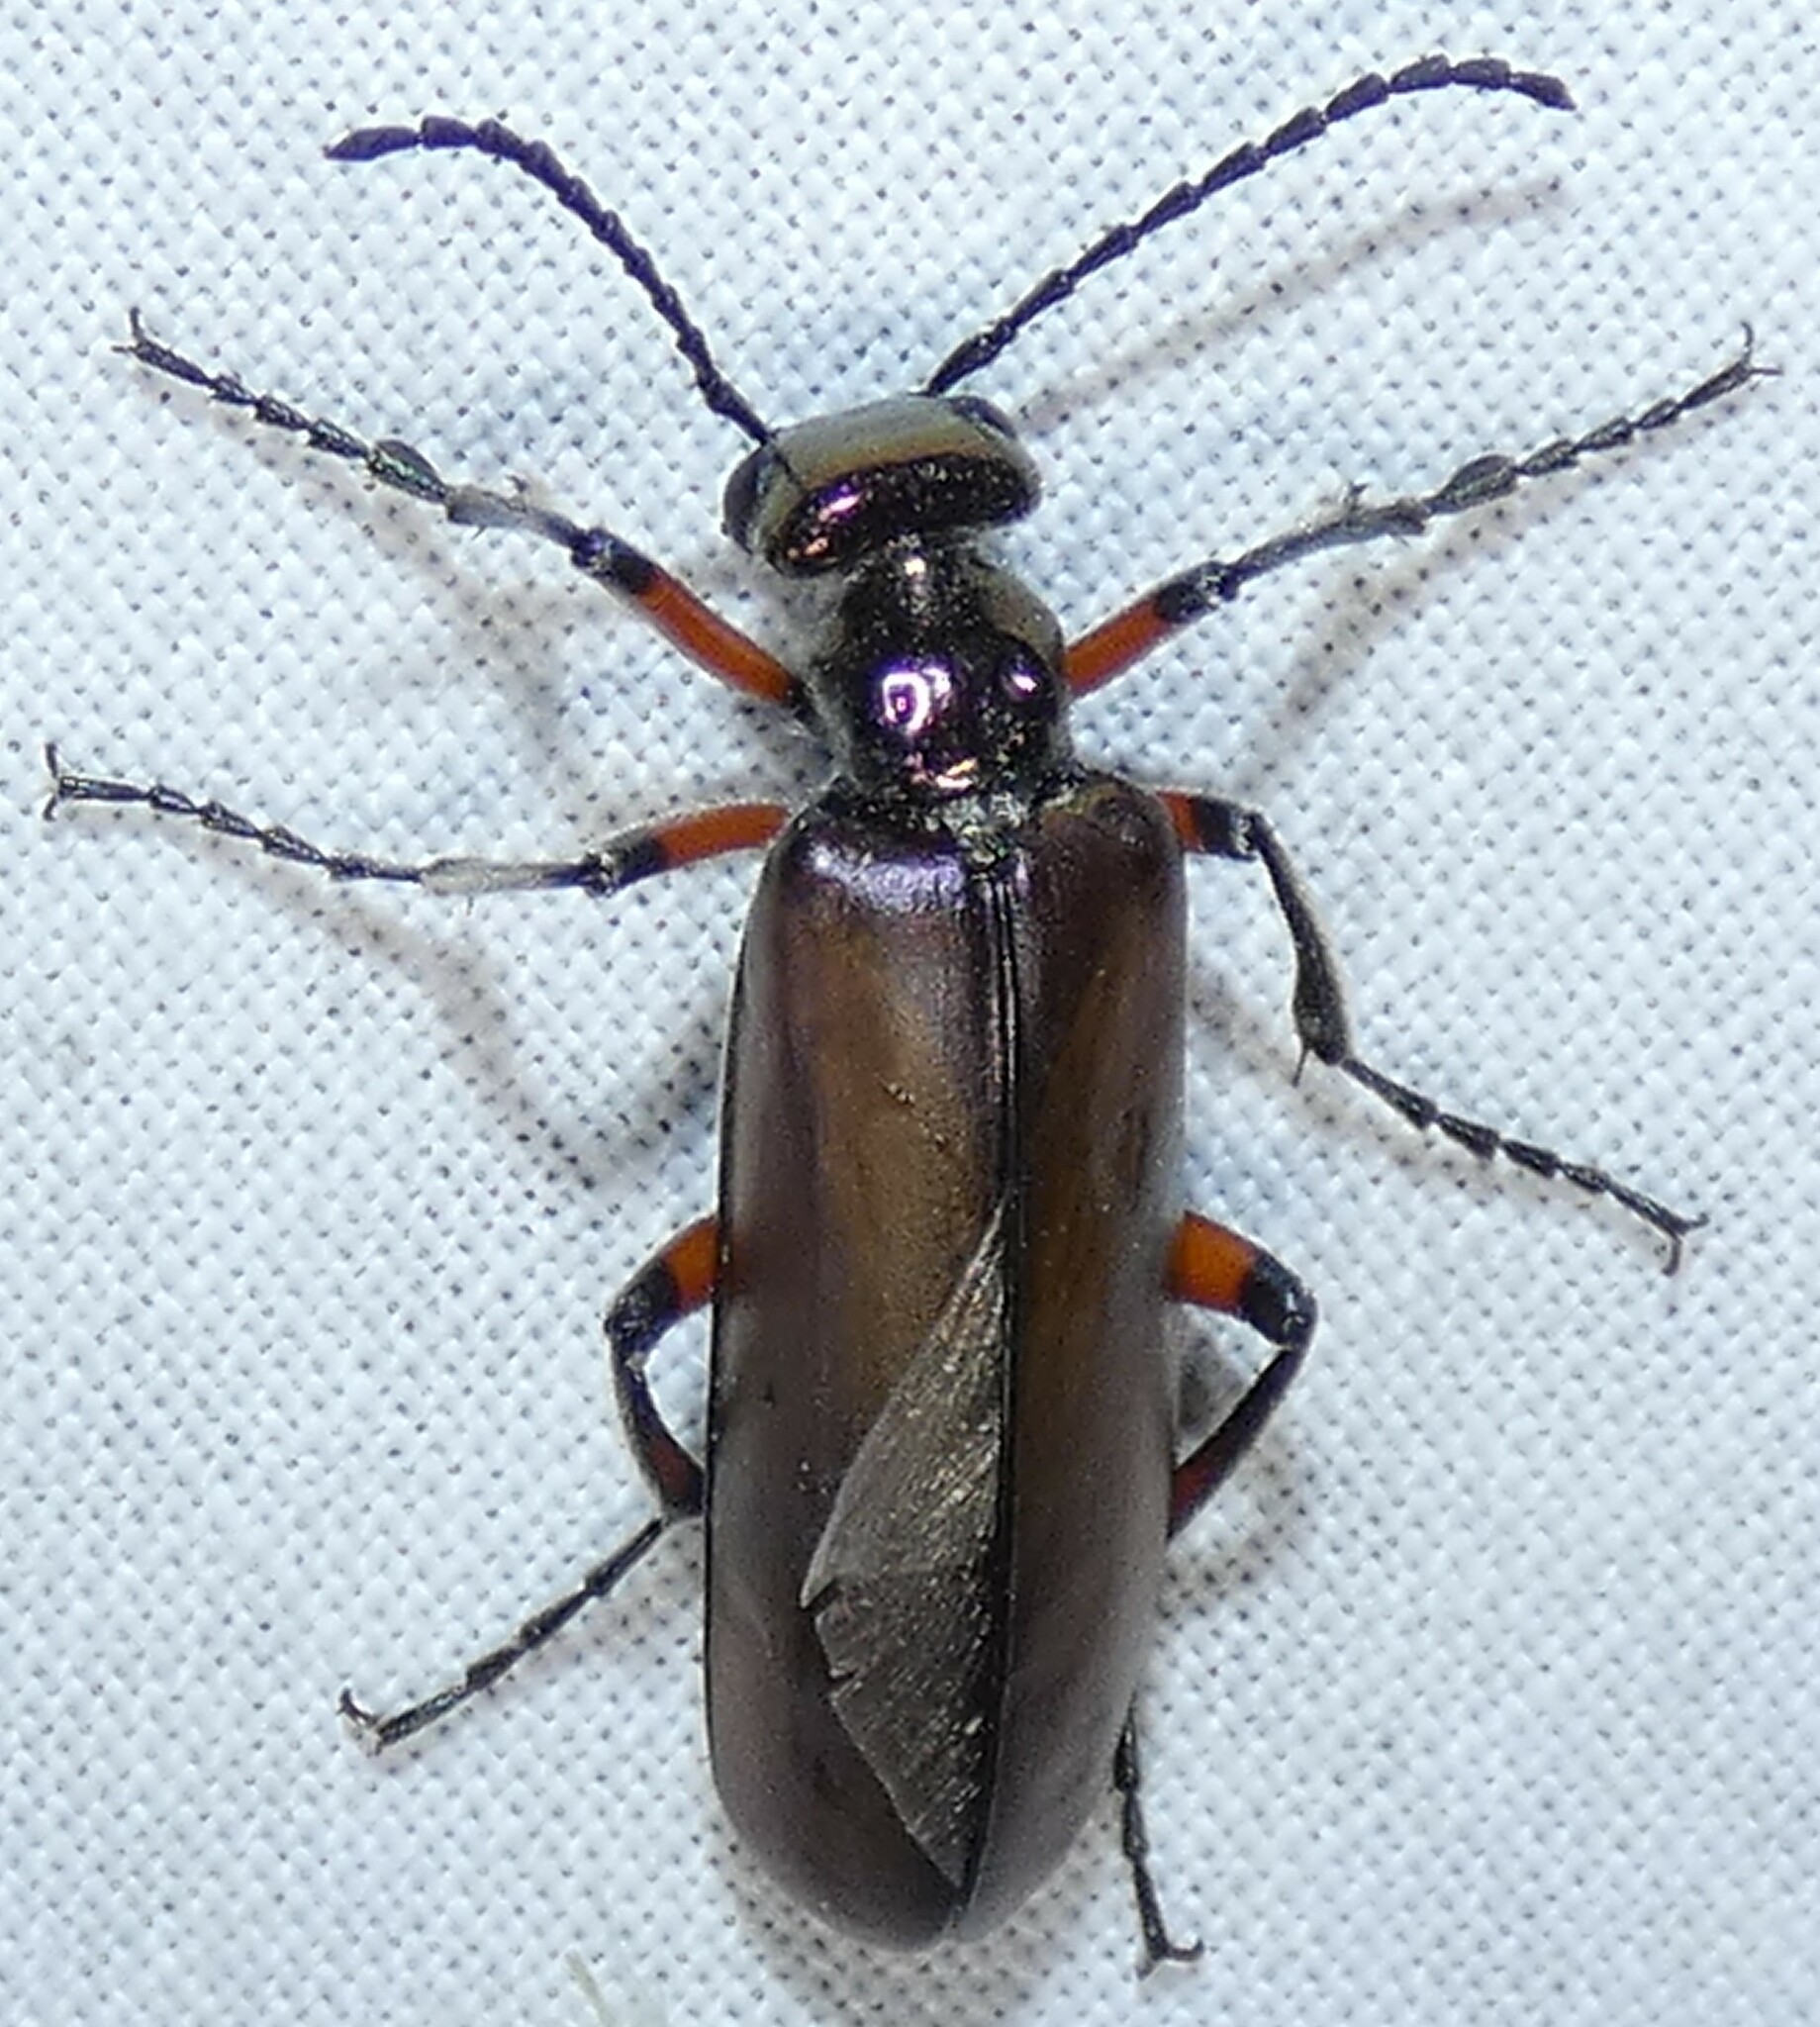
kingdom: Animalia
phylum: Arthropoda
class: Insecta
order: Coleoptera
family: Meloidae
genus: Lytta
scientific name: Lytta polita
